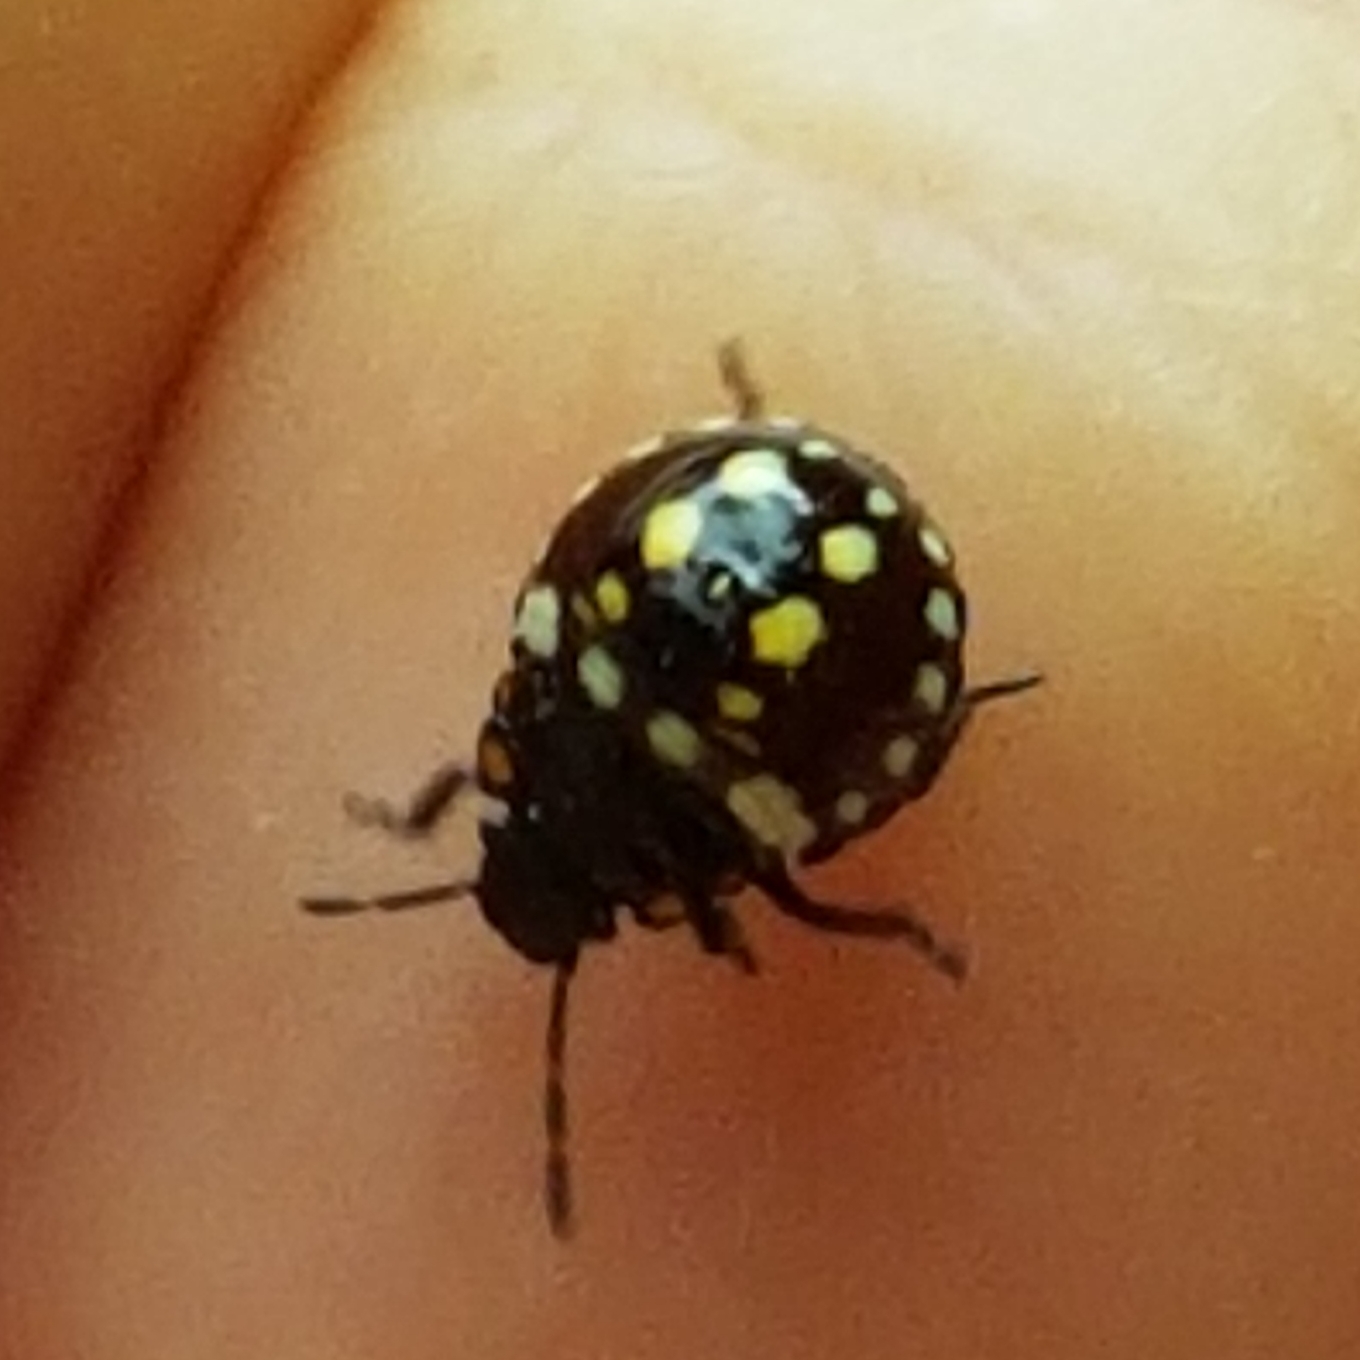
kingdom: Animalia
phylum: Arthropoda
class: Insecta
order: Hemiptera
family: Pentatomidae
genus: Nezara
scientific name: Nezara viridula
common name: Southern green stink bug
